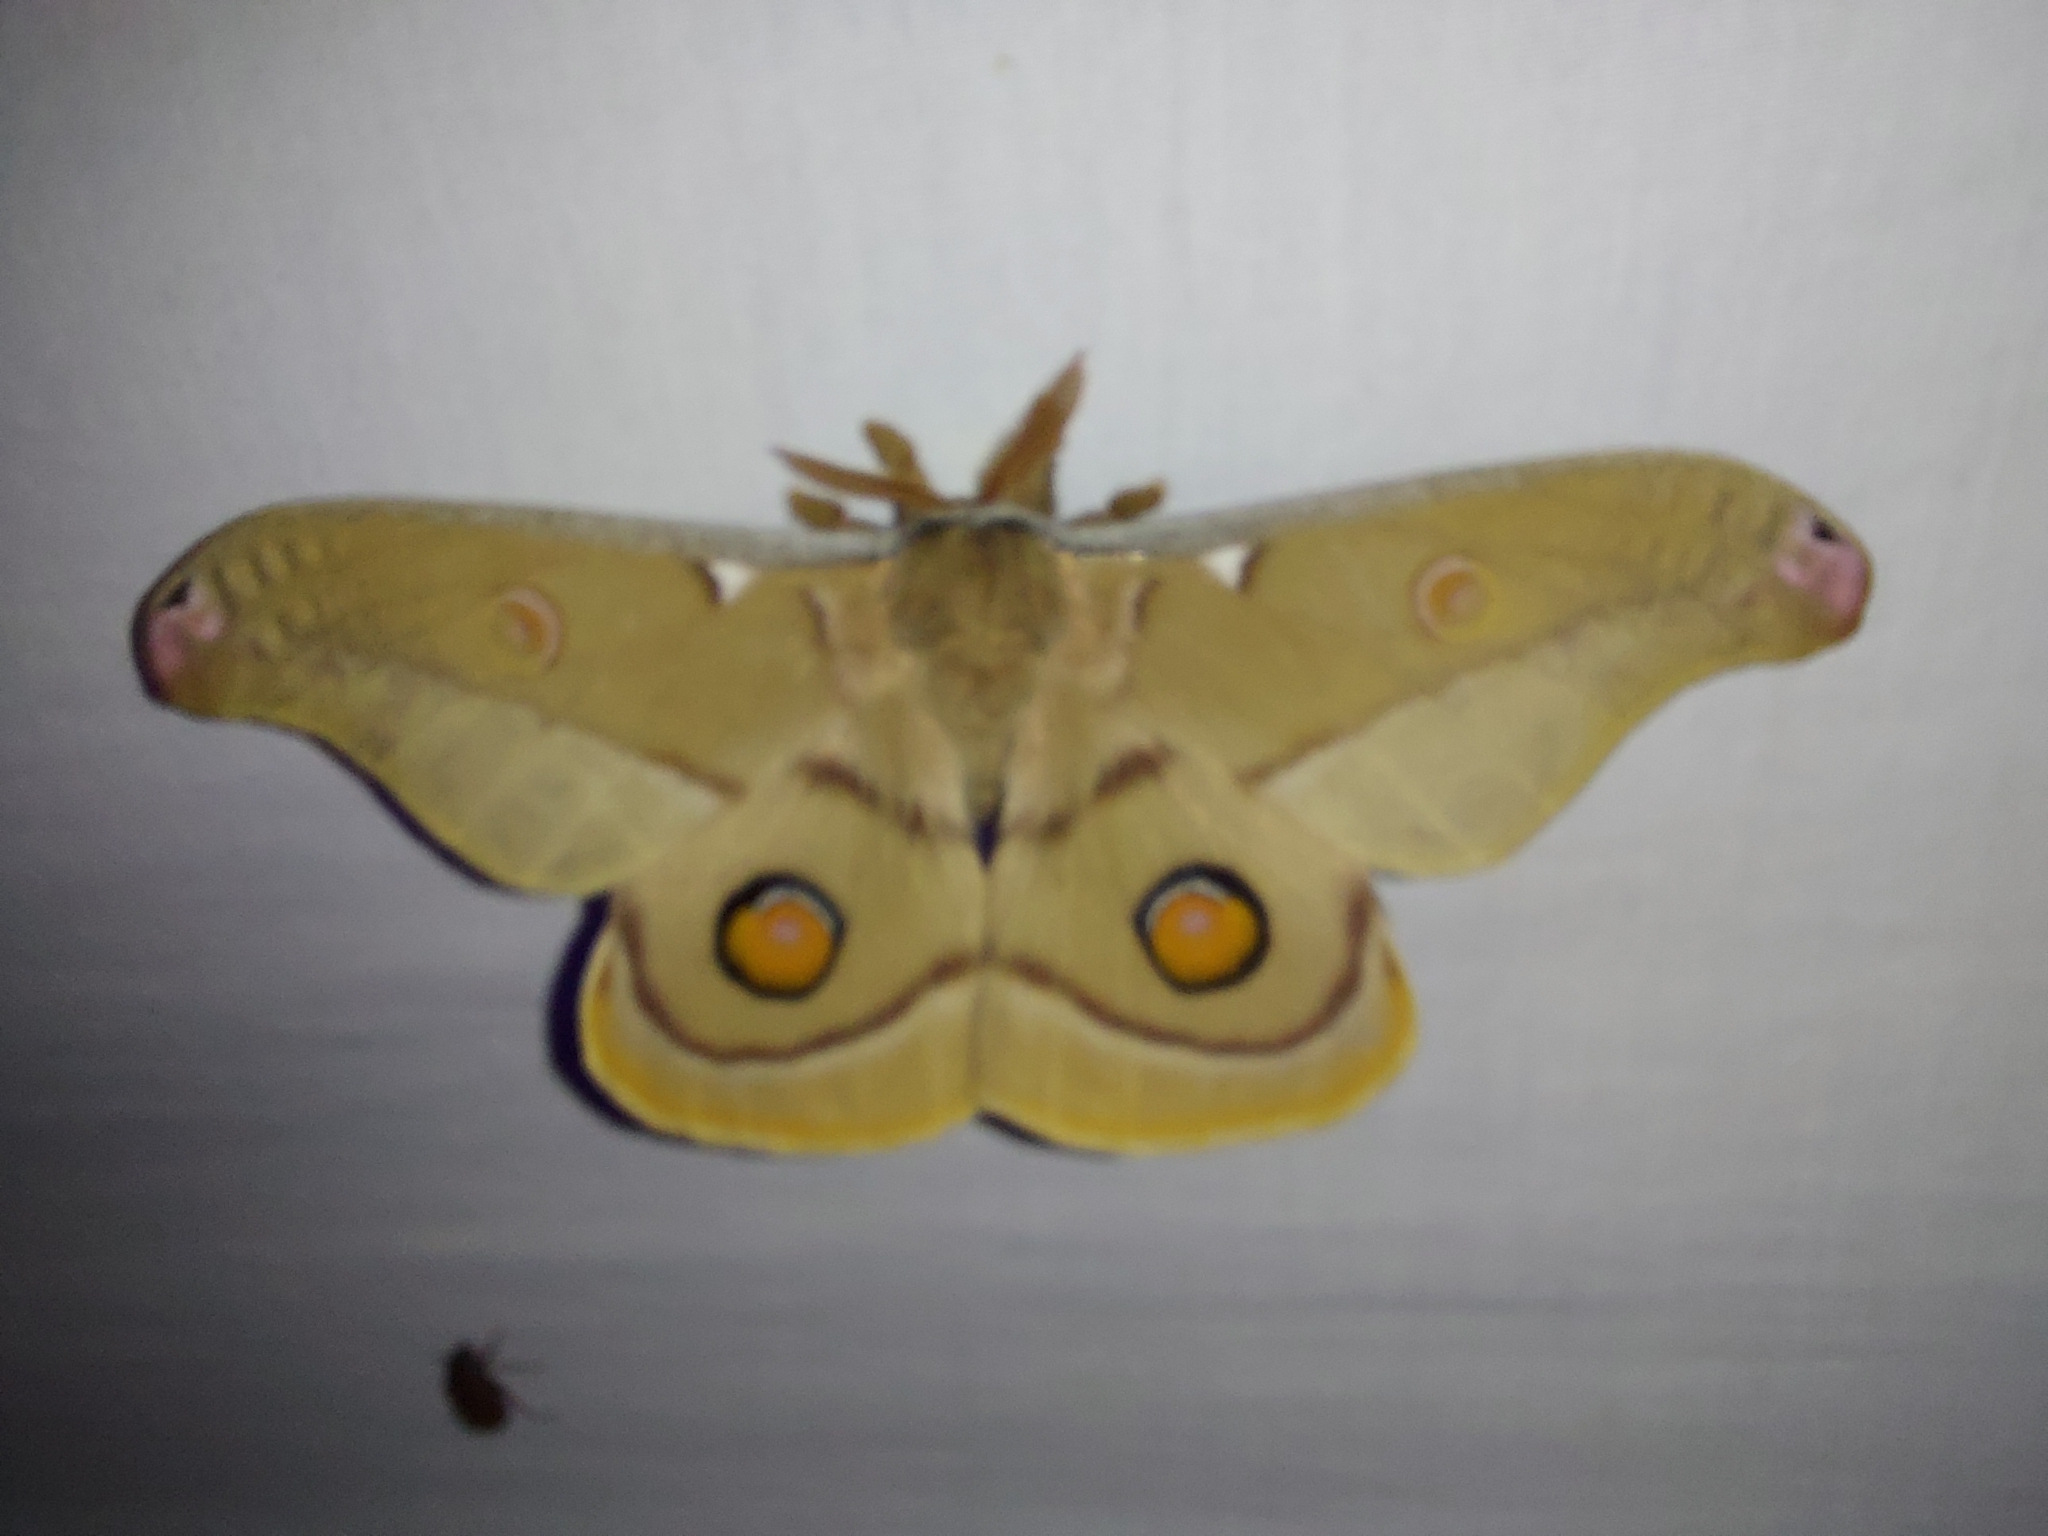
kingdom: Animalia
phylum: Arthropoda
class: Insecta
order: Lepidoptera
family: Saturniidae
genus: Opodiphthera
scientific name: Opodiphthera
